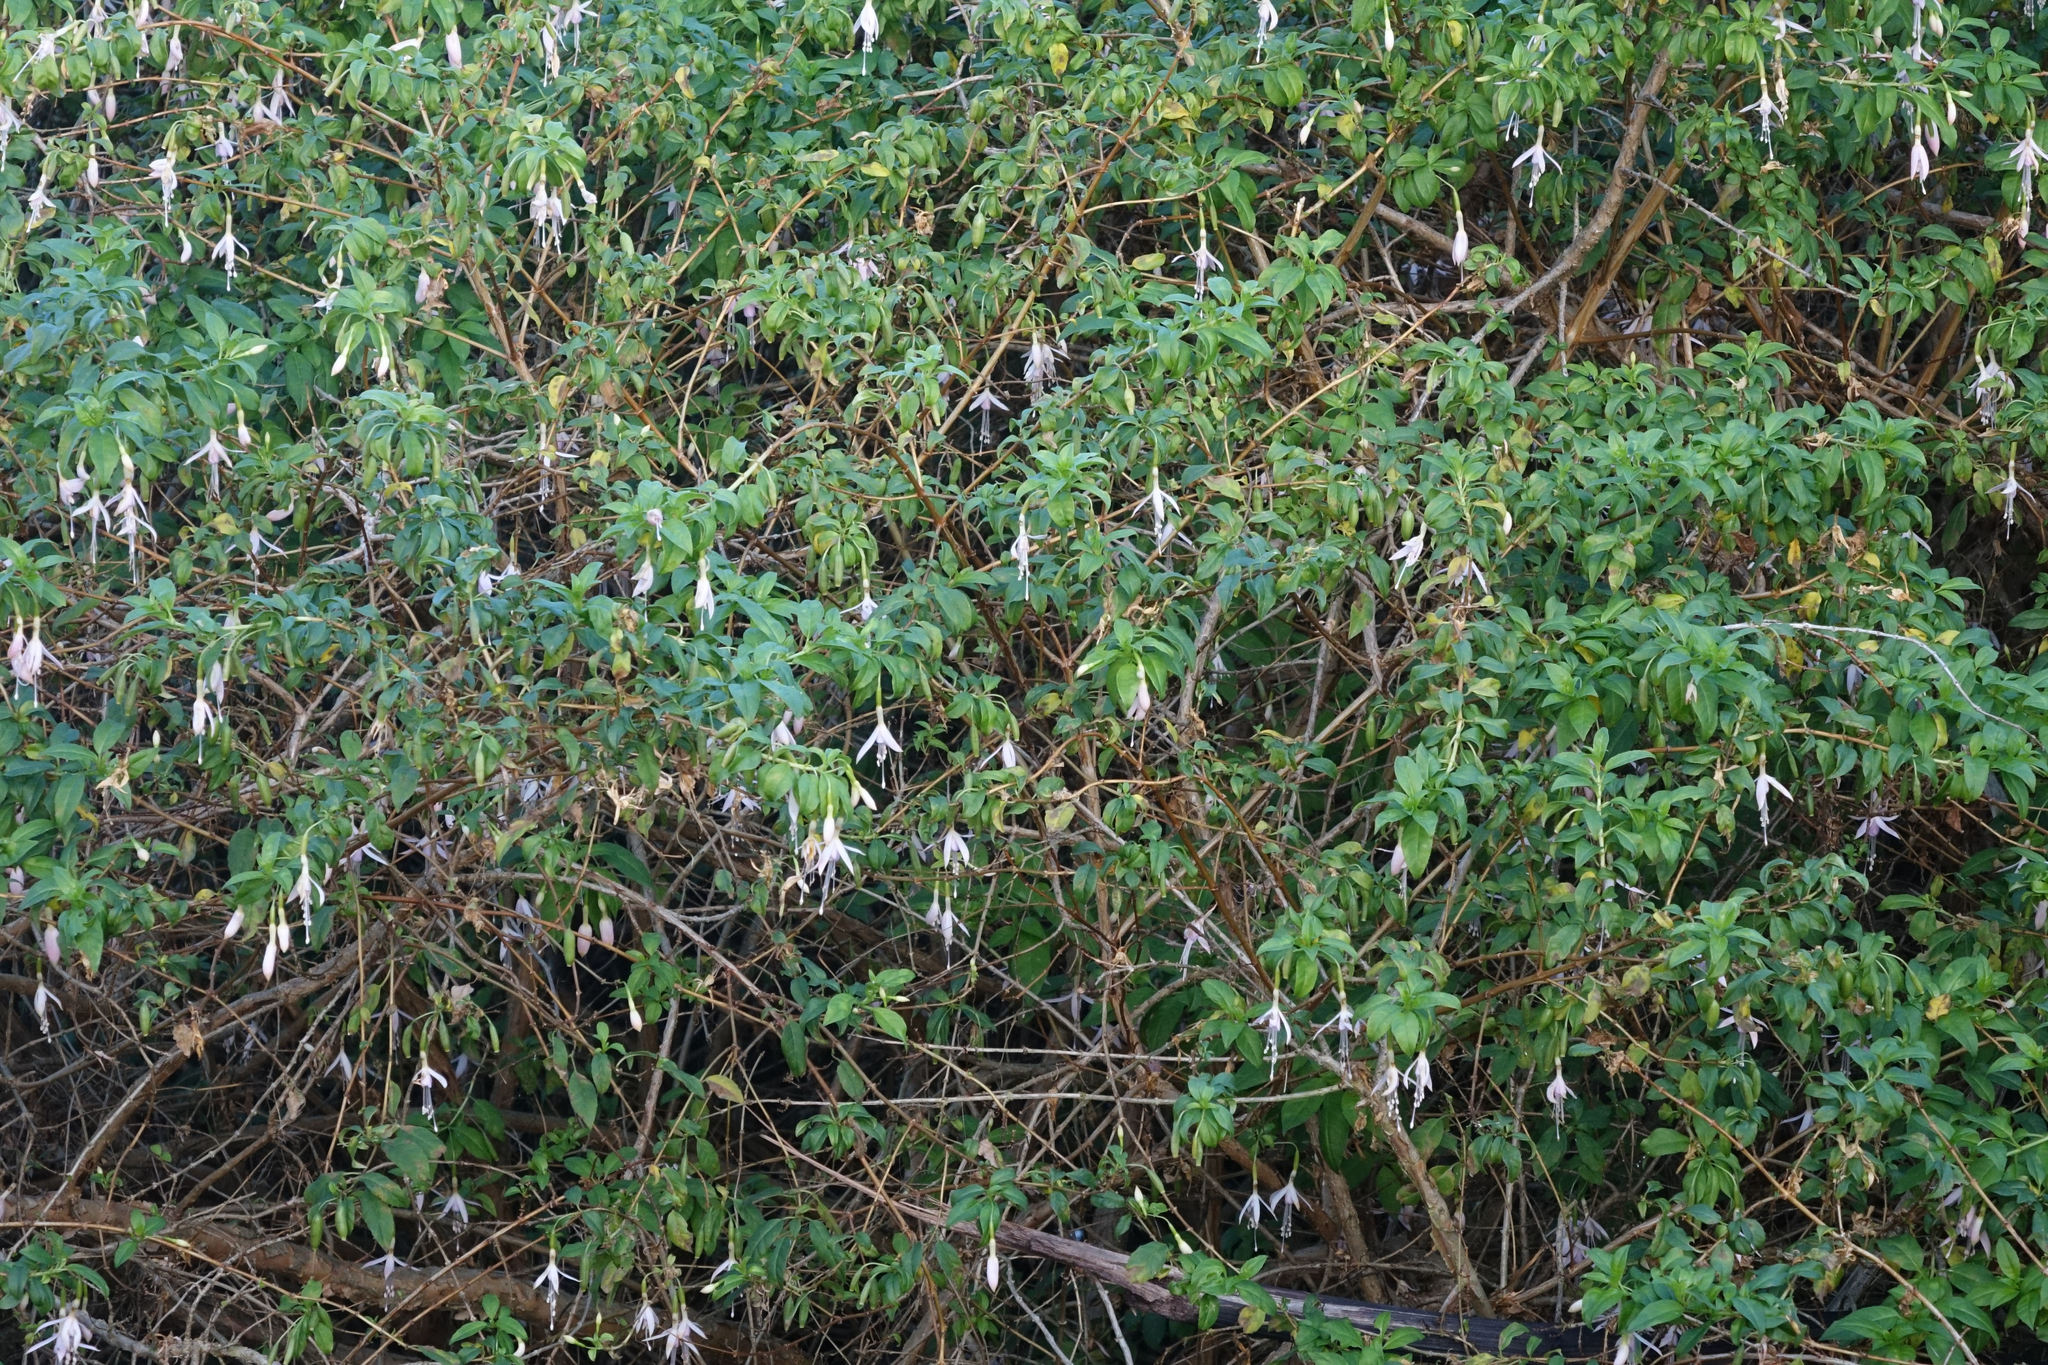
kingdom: Plantae
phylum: Tracheophyta
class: Magnoliopsida
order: Myrtales
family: Onagraceae
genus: Fuchsia
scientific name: Fuchsia magellanica
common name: Hardy fuchsia
